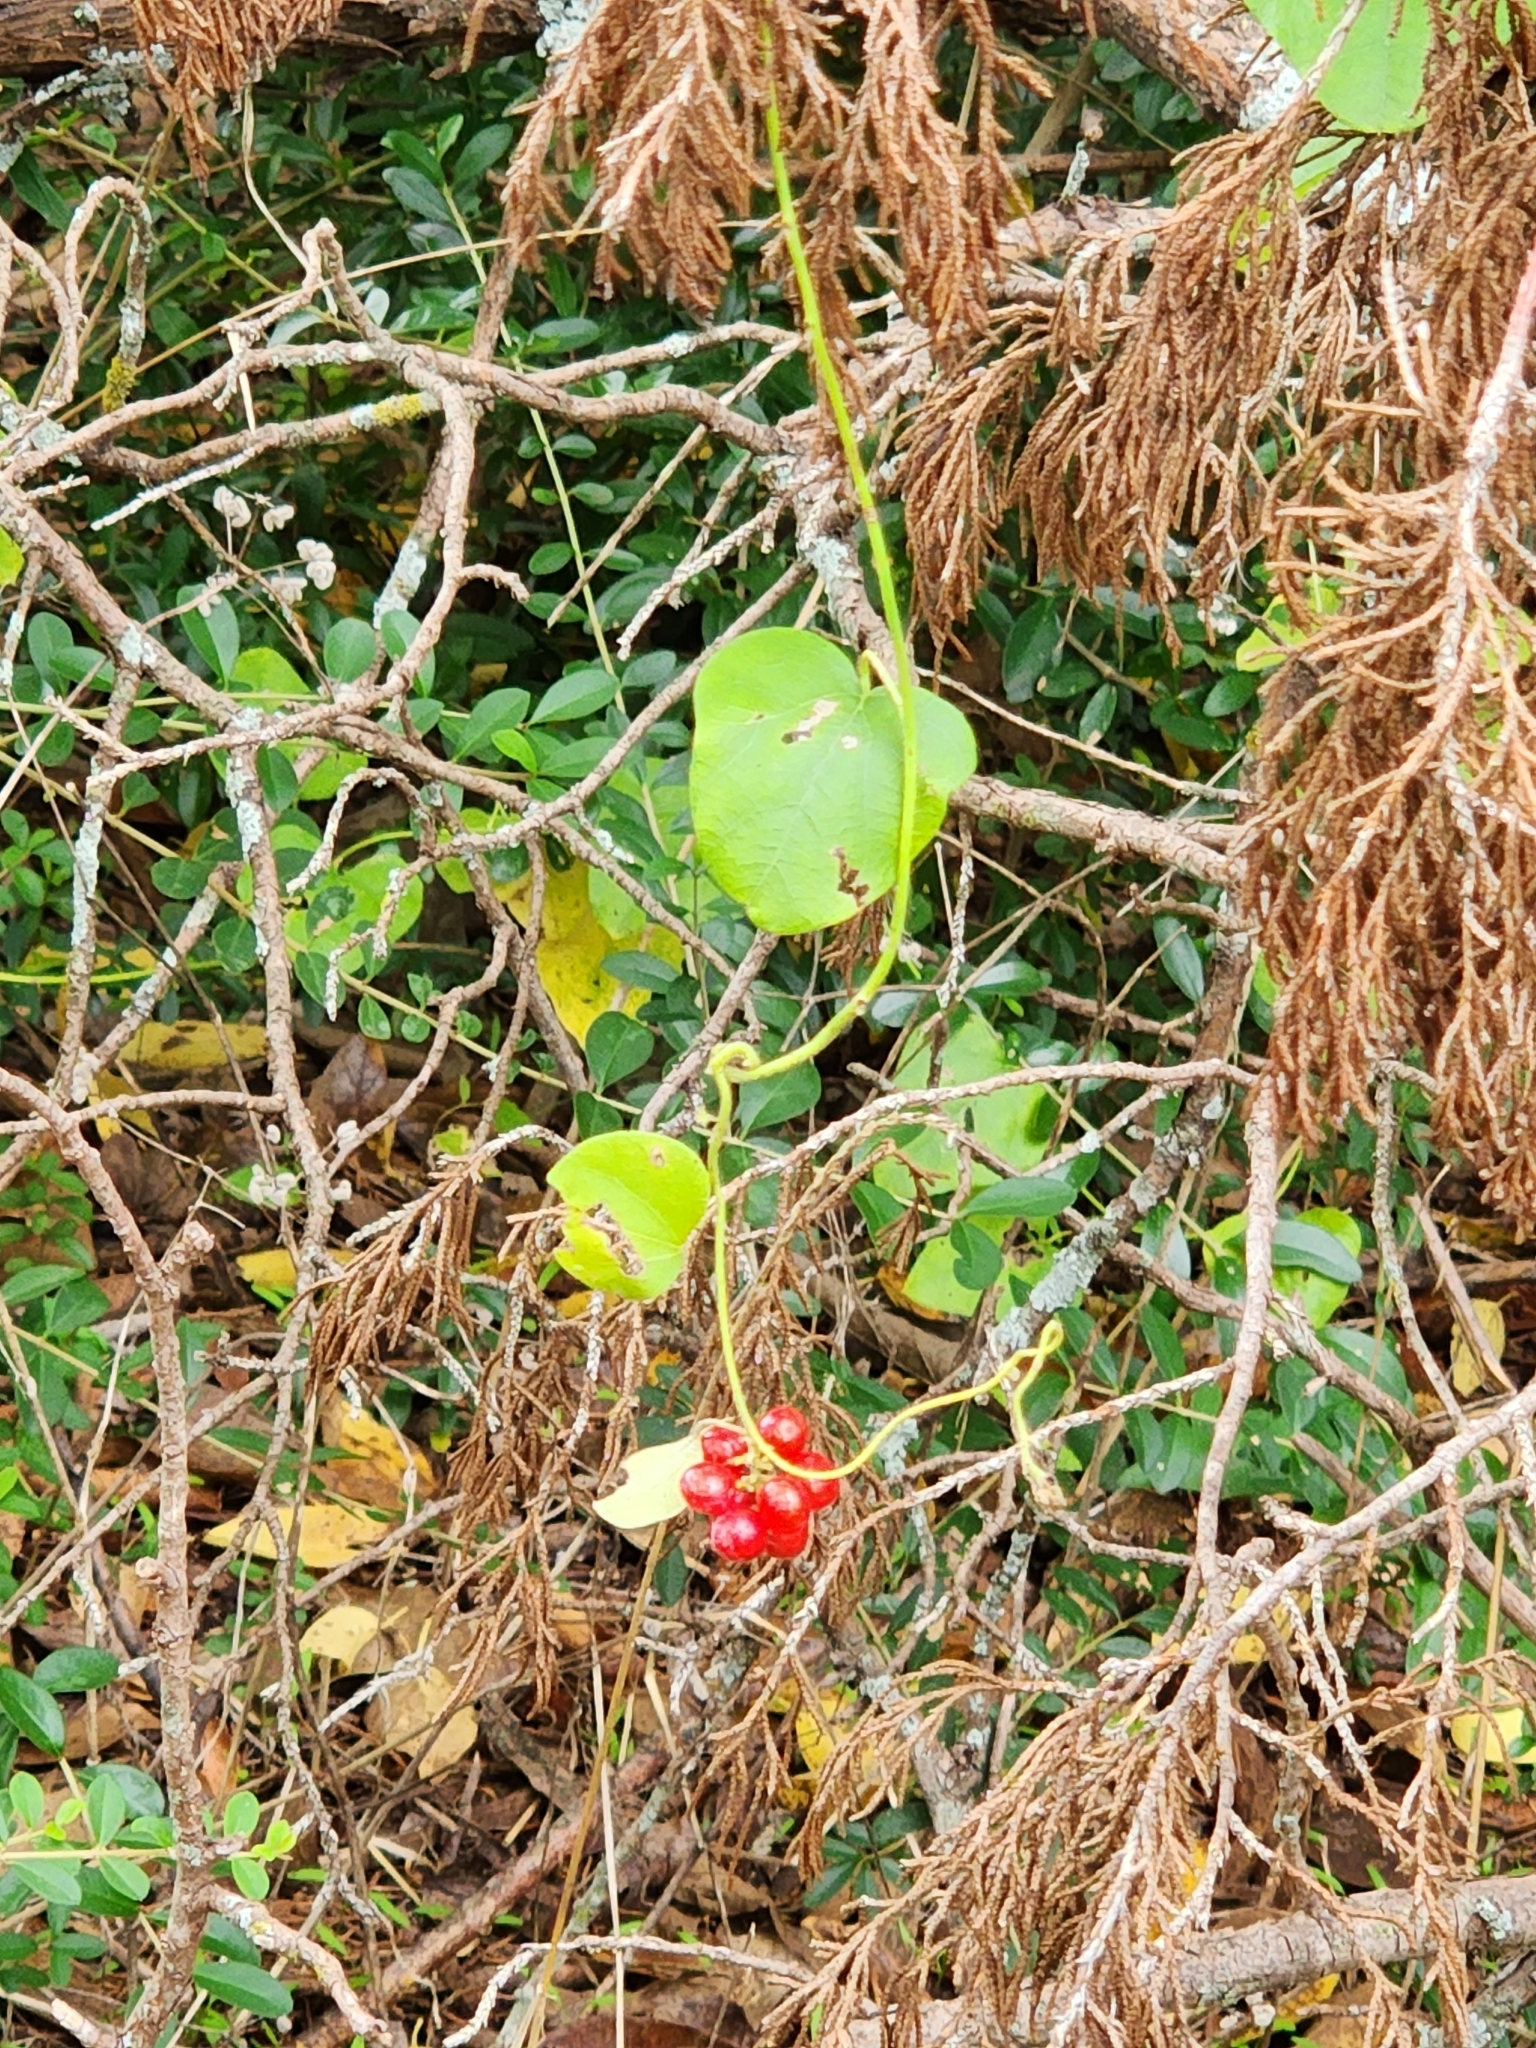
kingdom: Plantae
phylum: Tracheophyta
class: Magnoliopsida
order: Ranunculales
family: Menispermaceae
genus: Cocculus
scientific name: Cocculus carolinus
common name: Carolina moonseed
